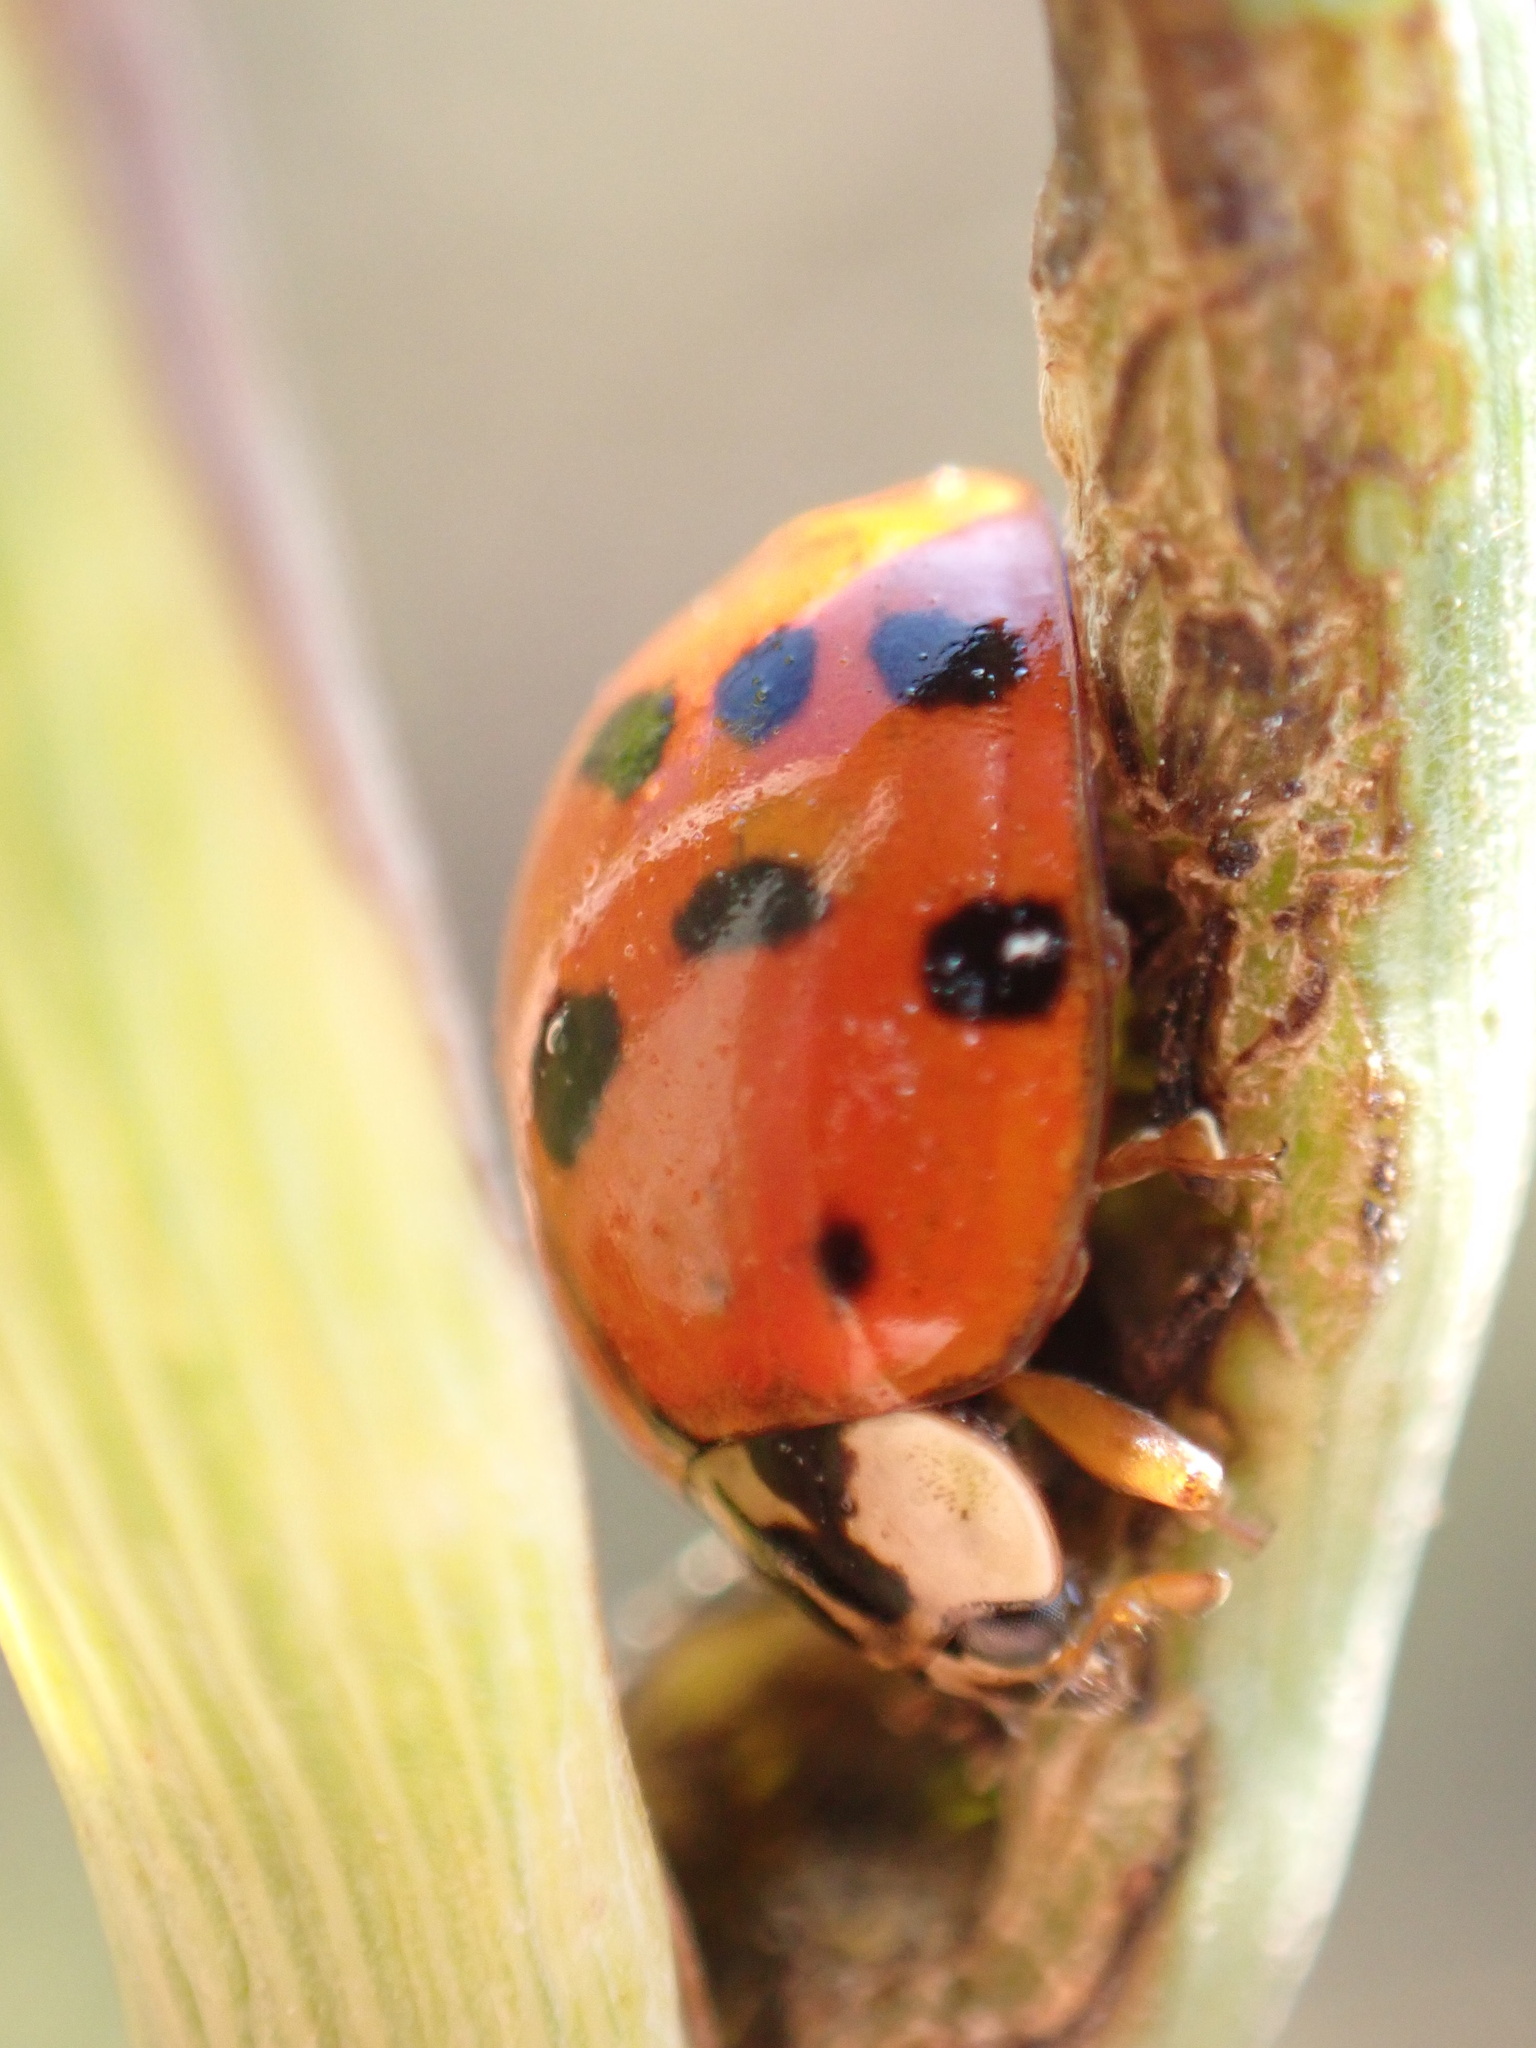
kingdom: Animalia
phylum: Arthropoda
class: Insecta
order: Coleoptera
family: Coccinellidae
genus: Harmonia
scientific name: Harmonia axyridis
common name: Harlequin ladybird
